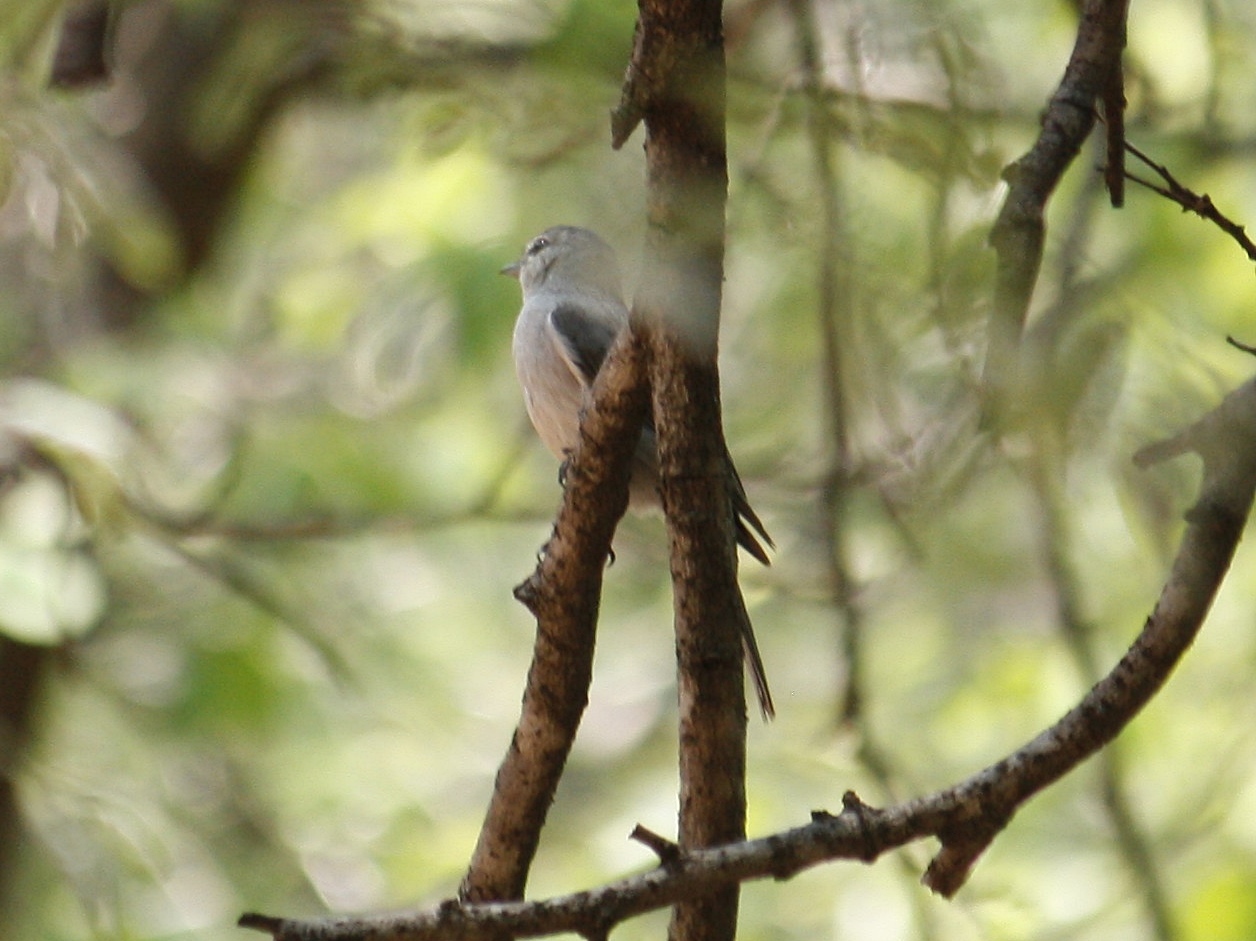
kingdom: Animalia
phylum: Chordata
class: Aves
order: Passeriformes
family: Muscicapidae
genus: Muscicapa
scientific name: Muscicapa striata
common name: Spotted flycatcher
